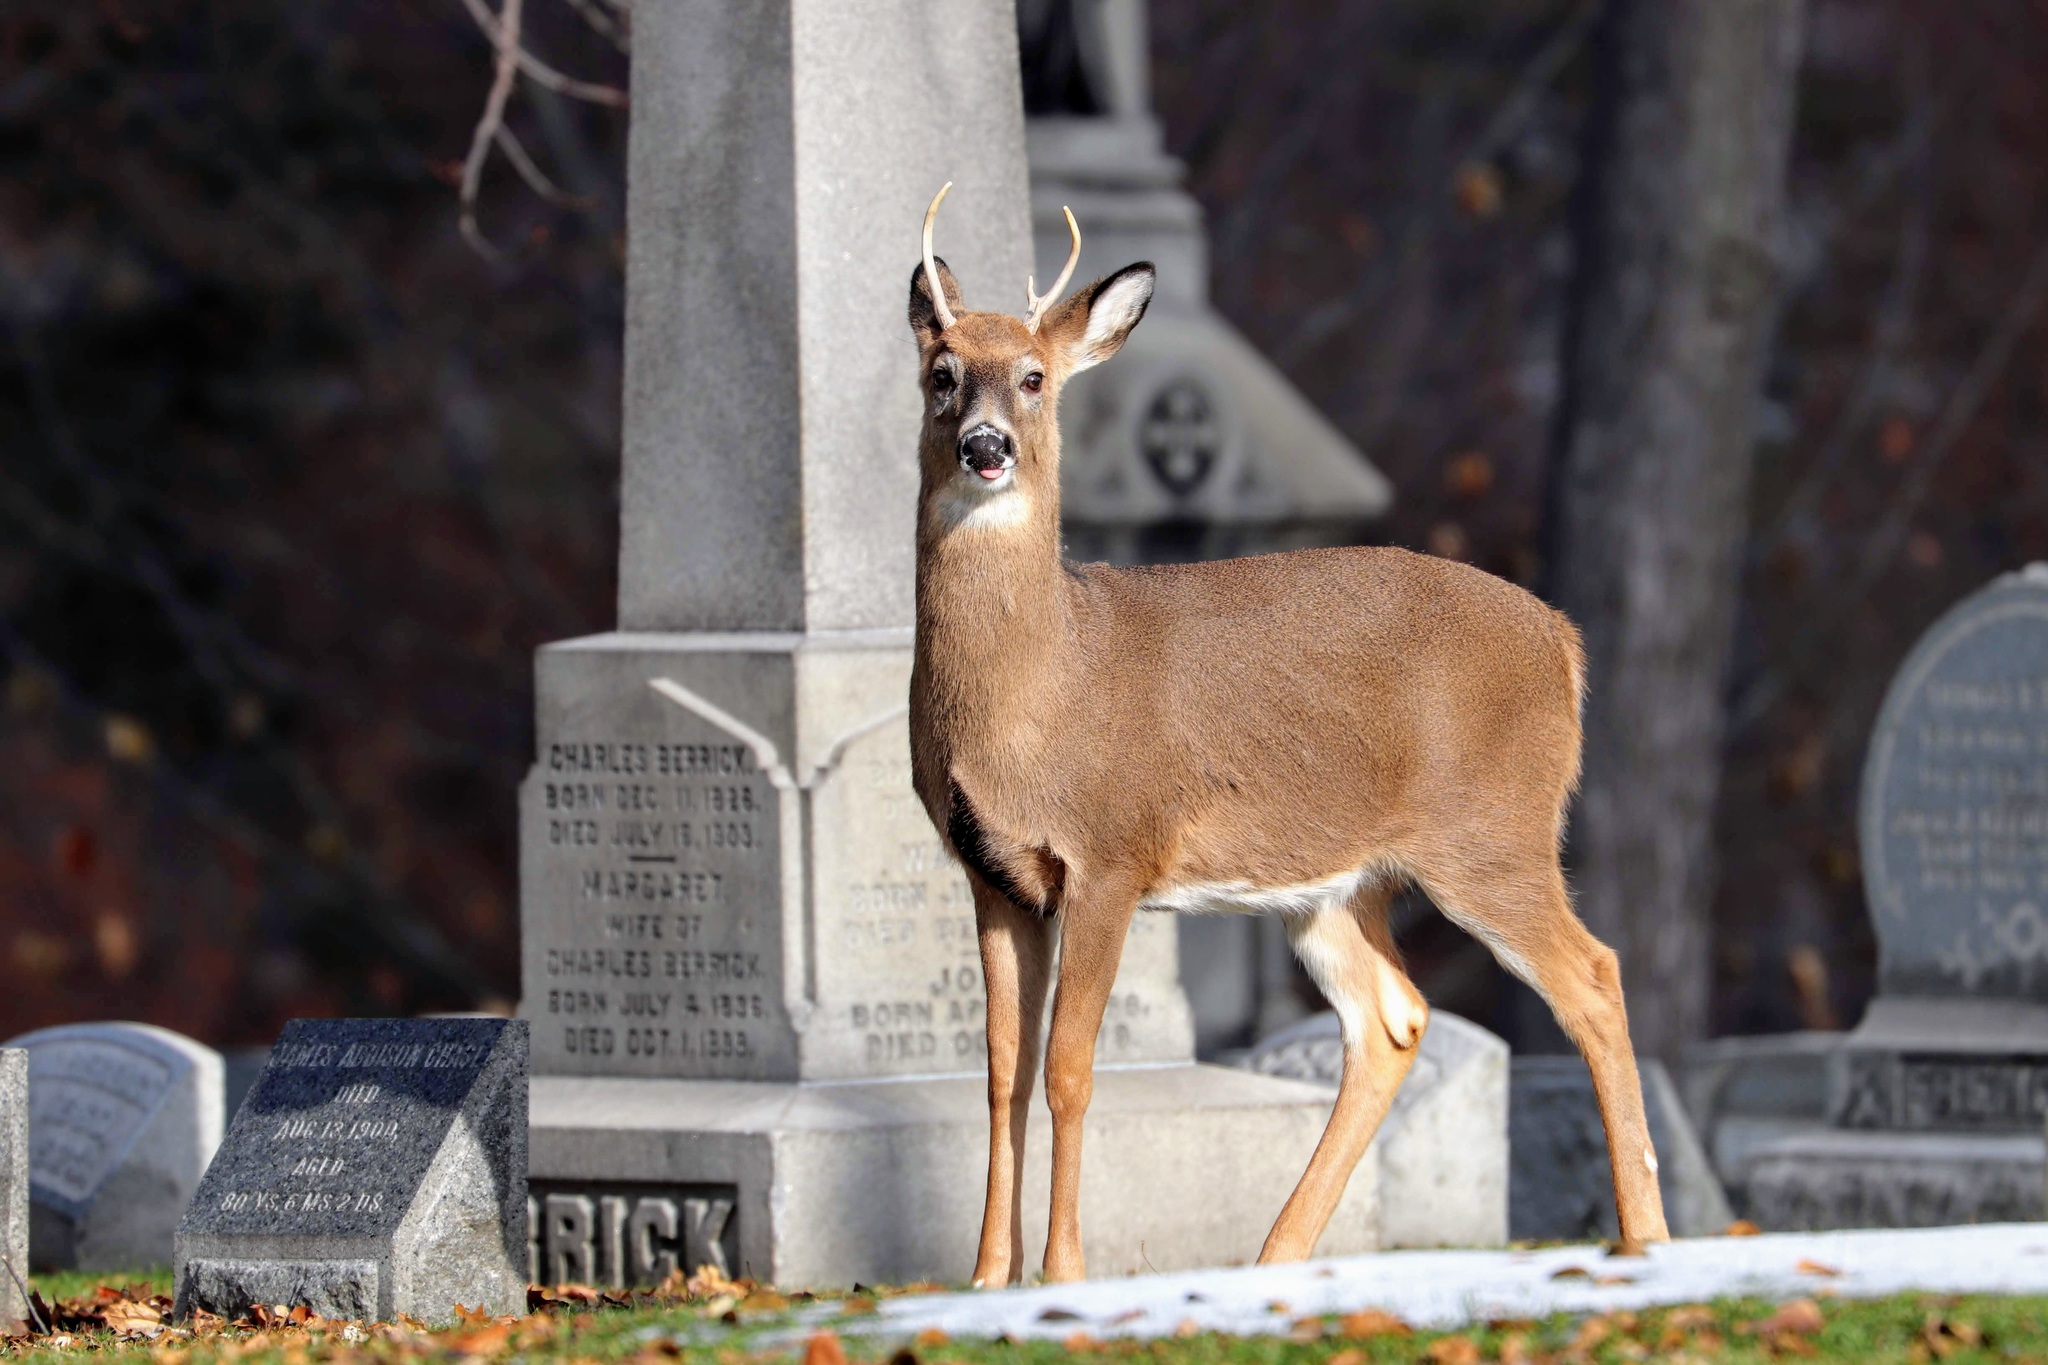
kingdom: Animalia
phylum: Chordata
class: Mammalia
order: Artiodactyla
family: Cervidae
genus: Odocoileus
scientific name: Odocoileus virginianus
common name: White-tailed deer
